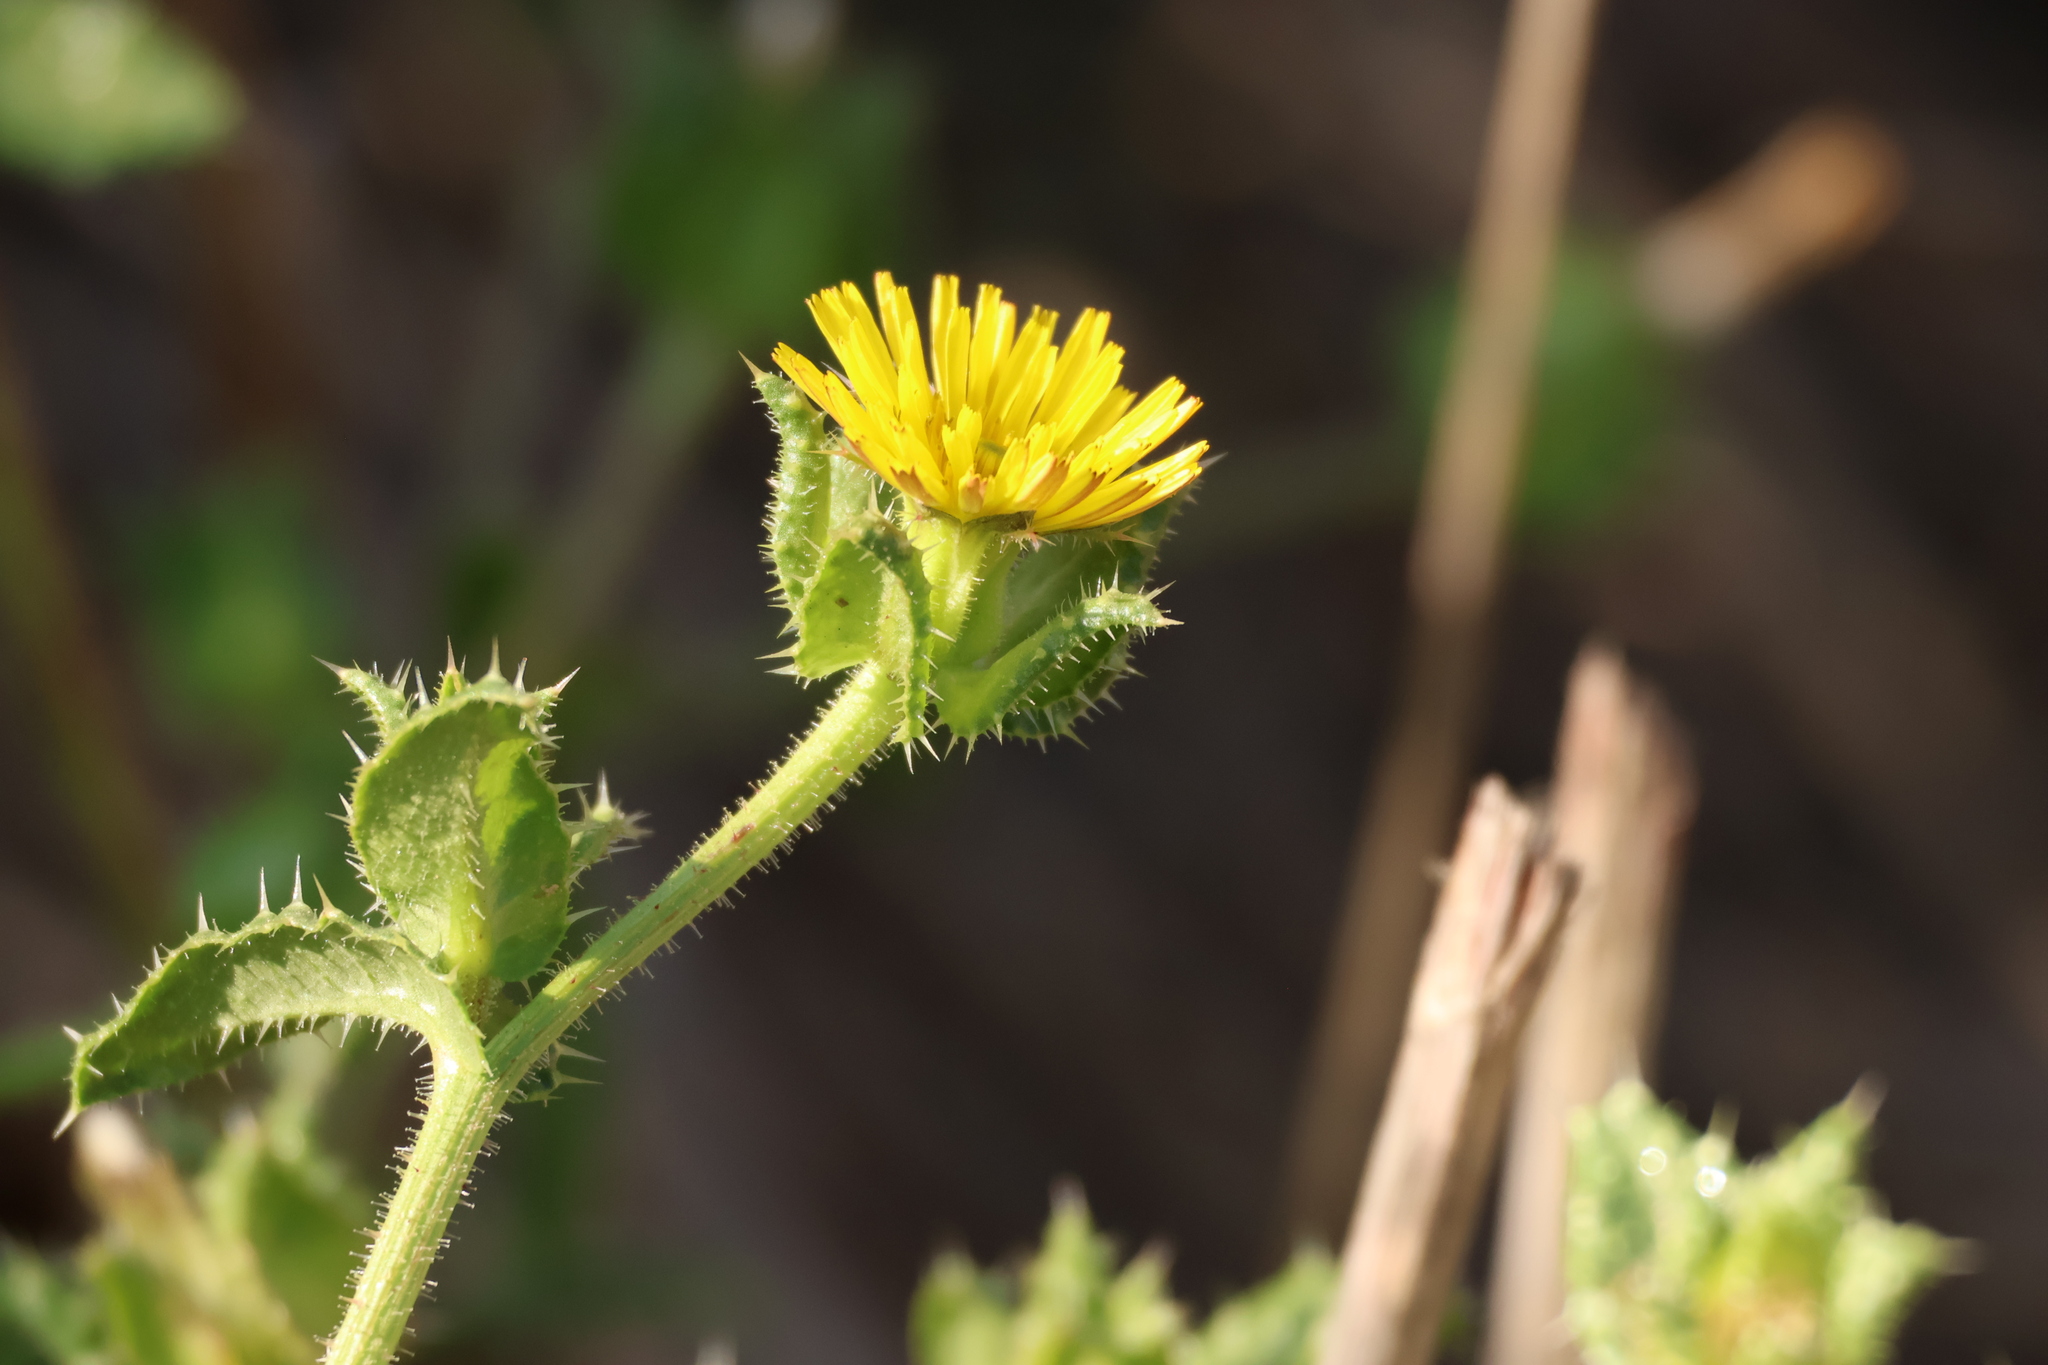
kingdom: Plantae
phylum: Tracheophyta
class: Magnoliopsida
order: Asterales
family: Asteraceae
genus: Helminthotheca
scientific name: Helminthotheca echioides
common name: Ox-tongue
